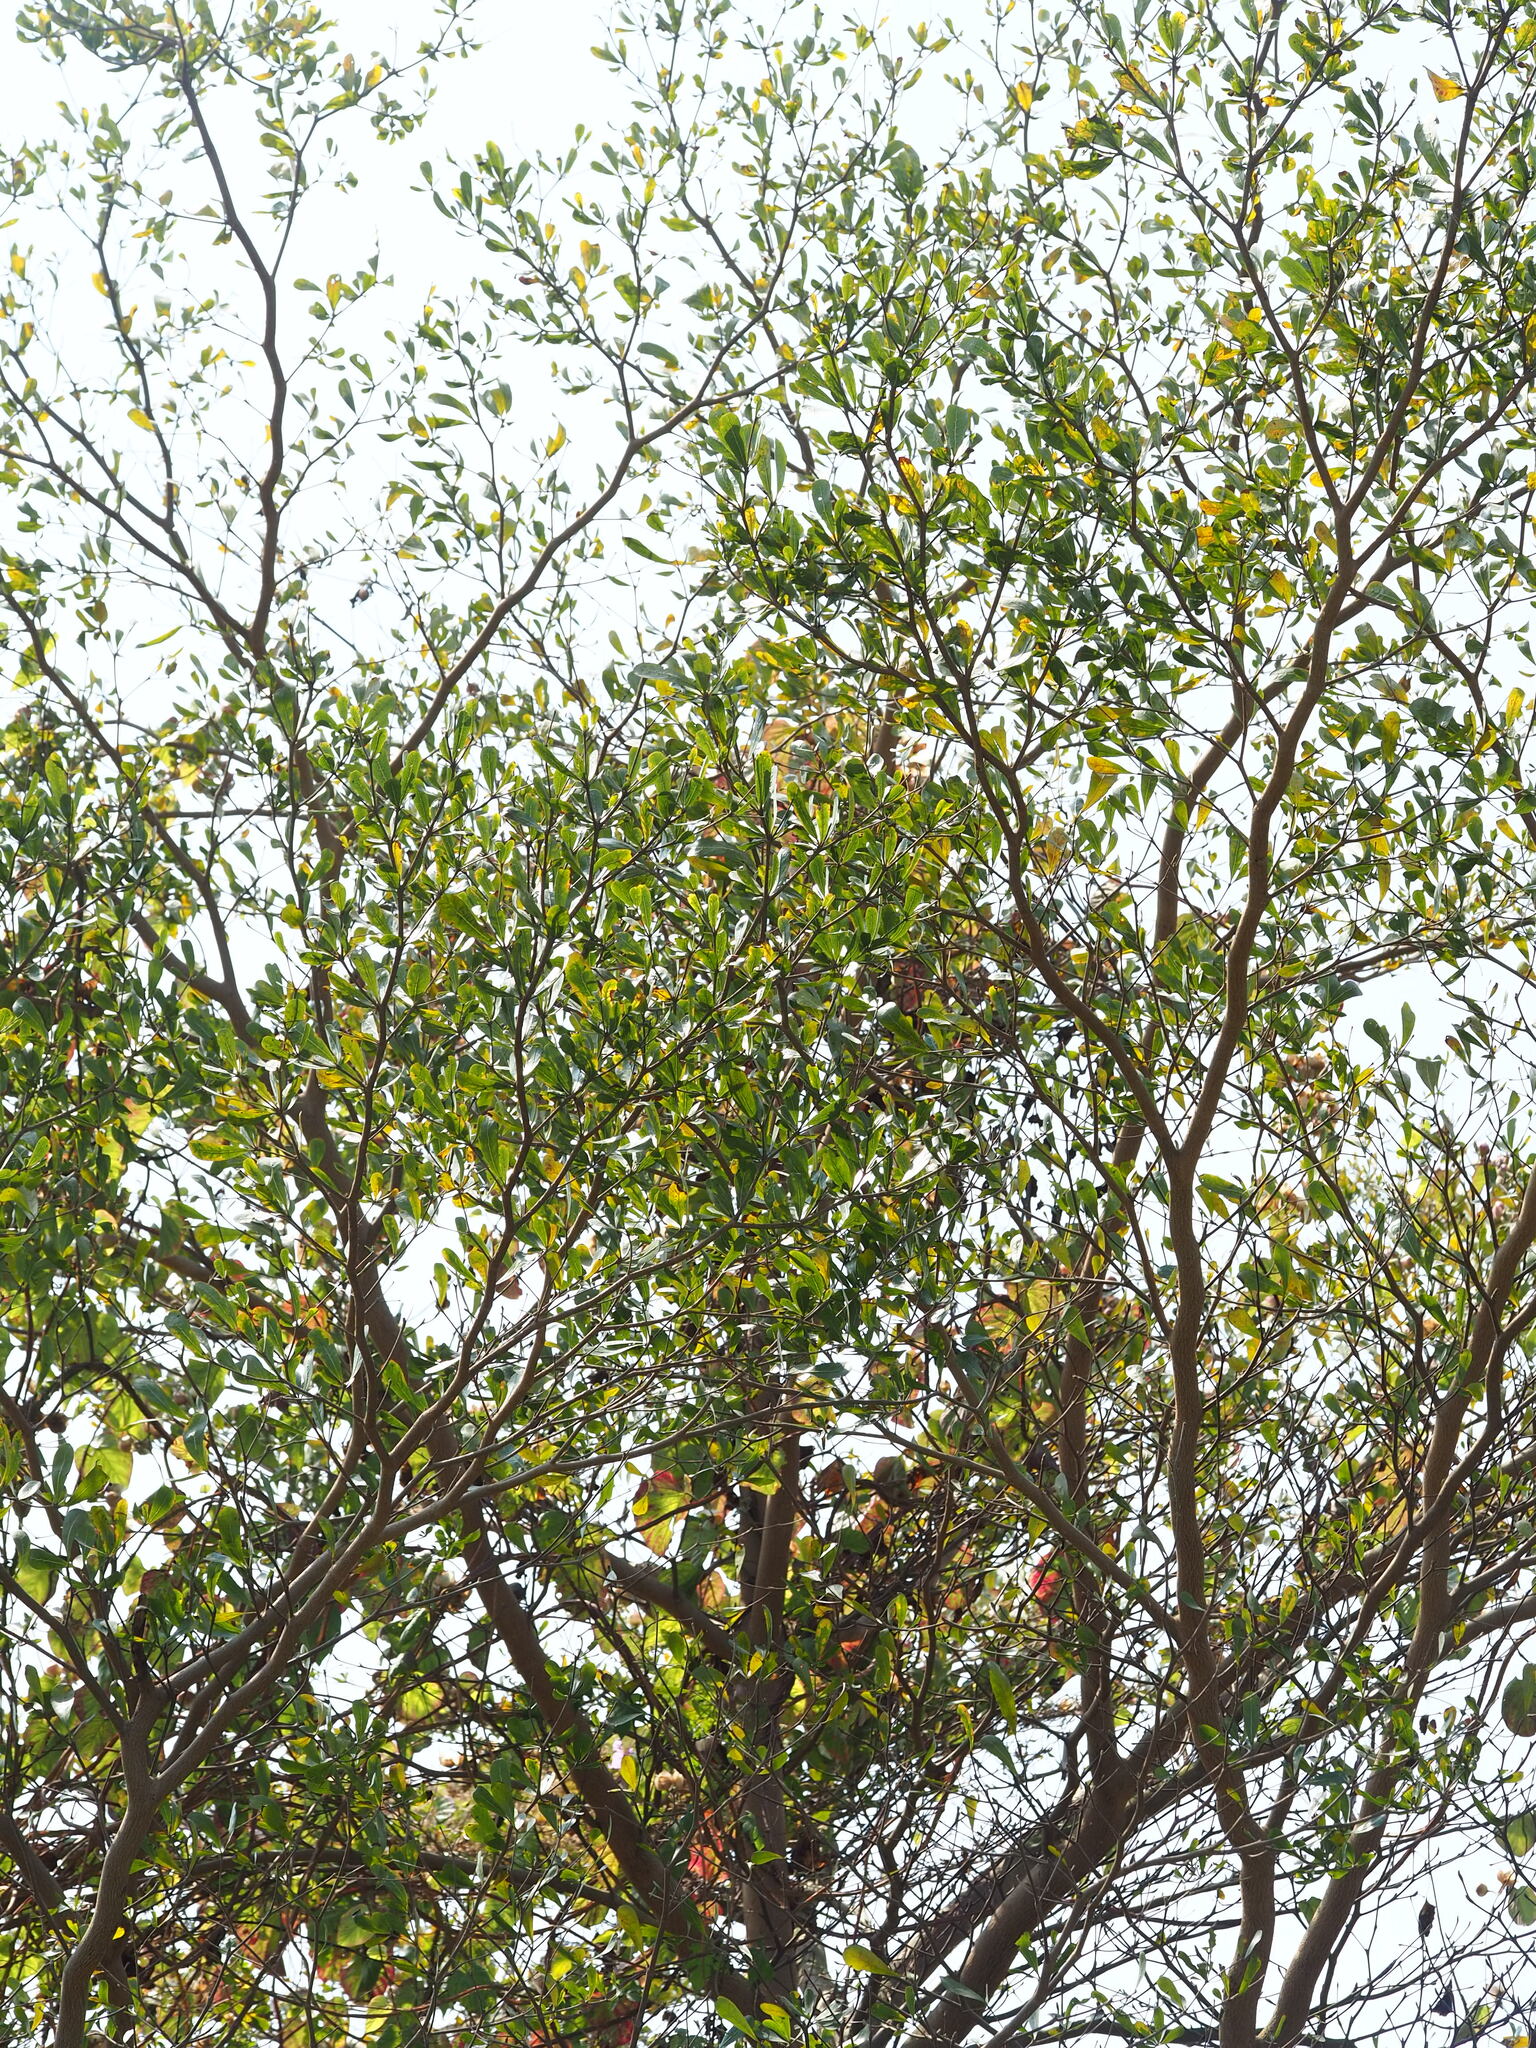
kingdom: Plantae
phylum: Tracheophyta
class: Magnoliopsida
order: Myrtales
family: Combretaceae
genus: Terminalia
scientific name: Terminalia neotaliala
